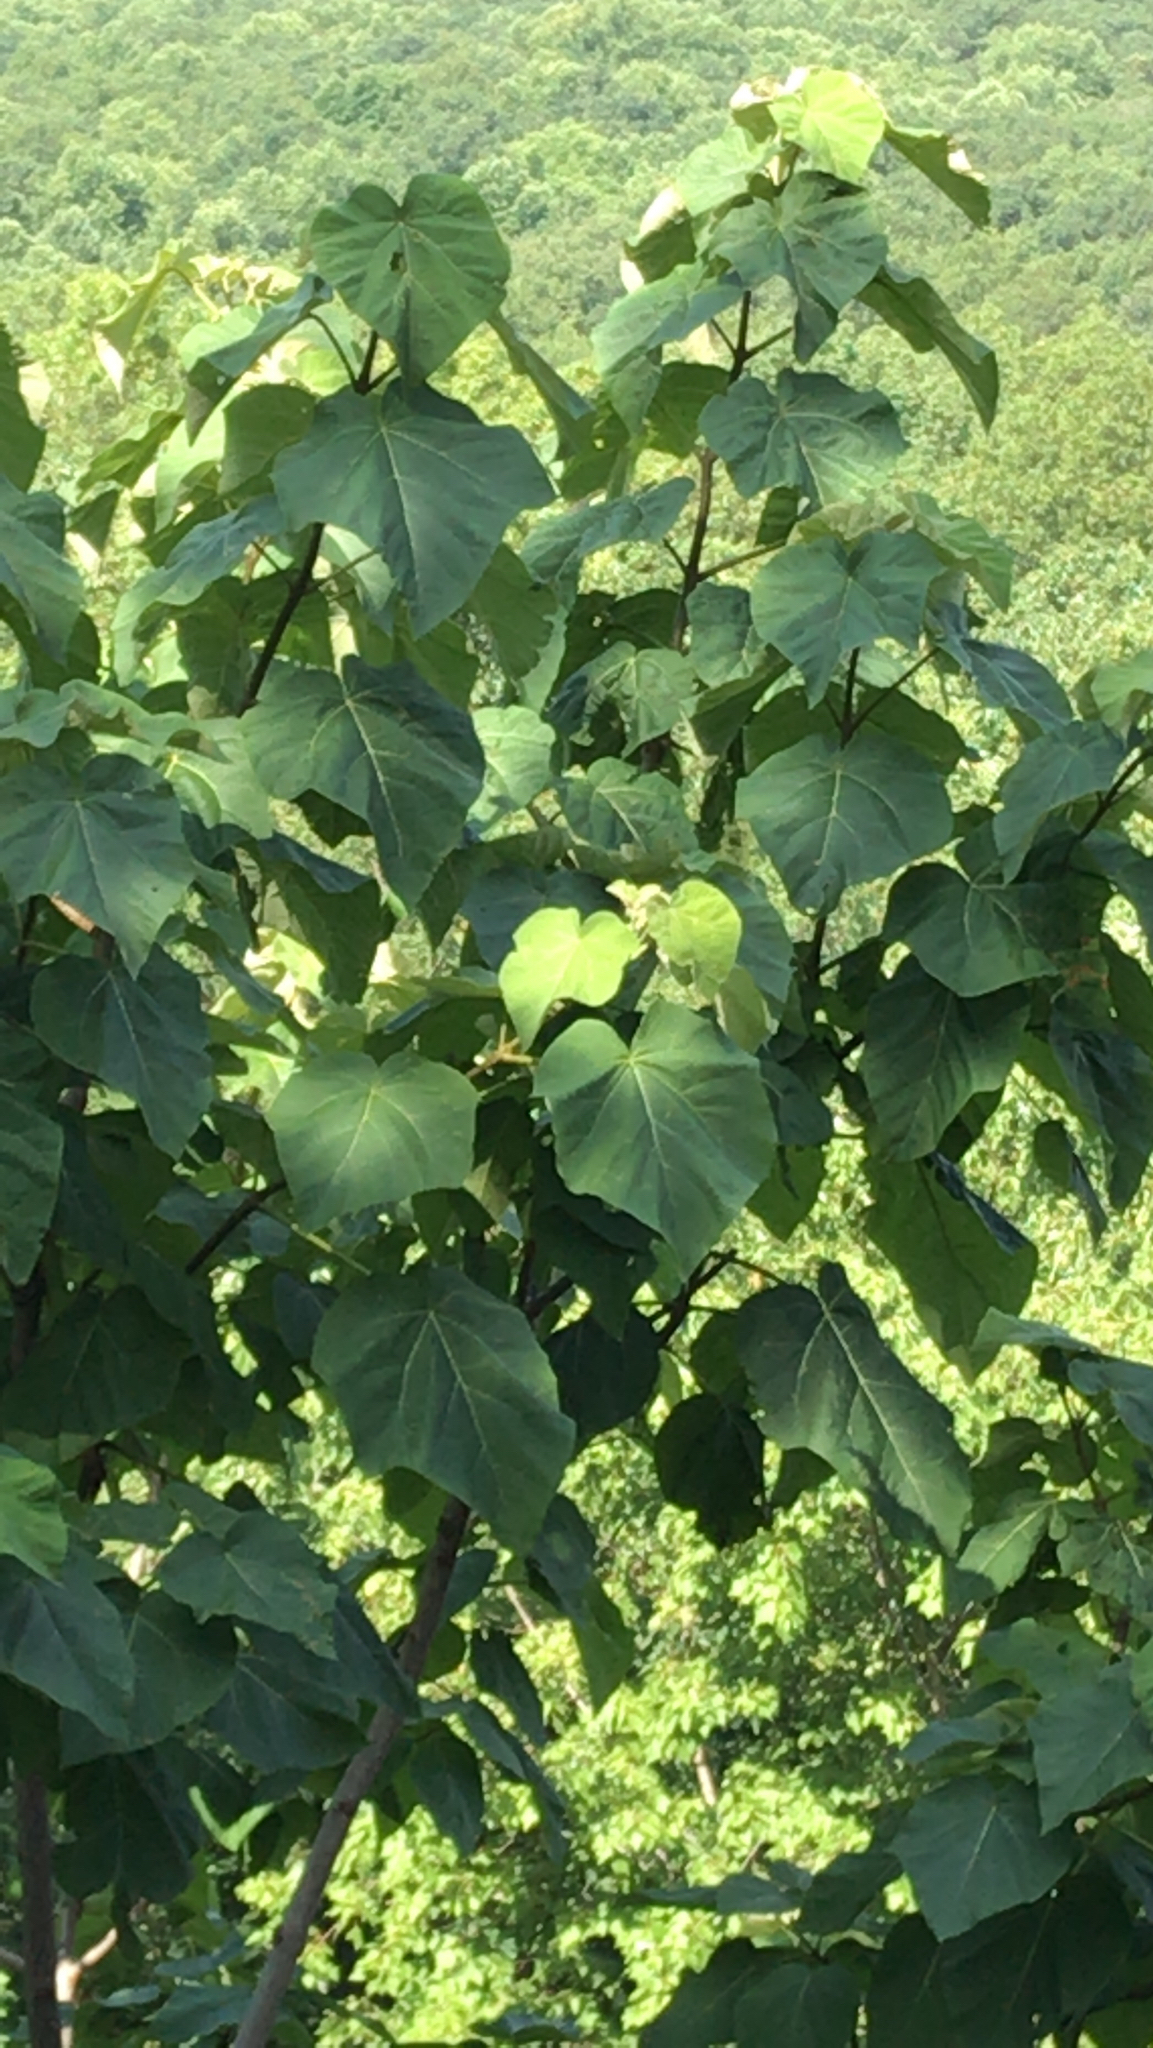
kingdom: Plantae
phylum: Tracheophyta
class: Magnoliopsida
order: Lamiales
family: Paulowniaceae
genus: Paulownia
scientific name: Paulownia tomentosa
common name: Foxglove-tree
